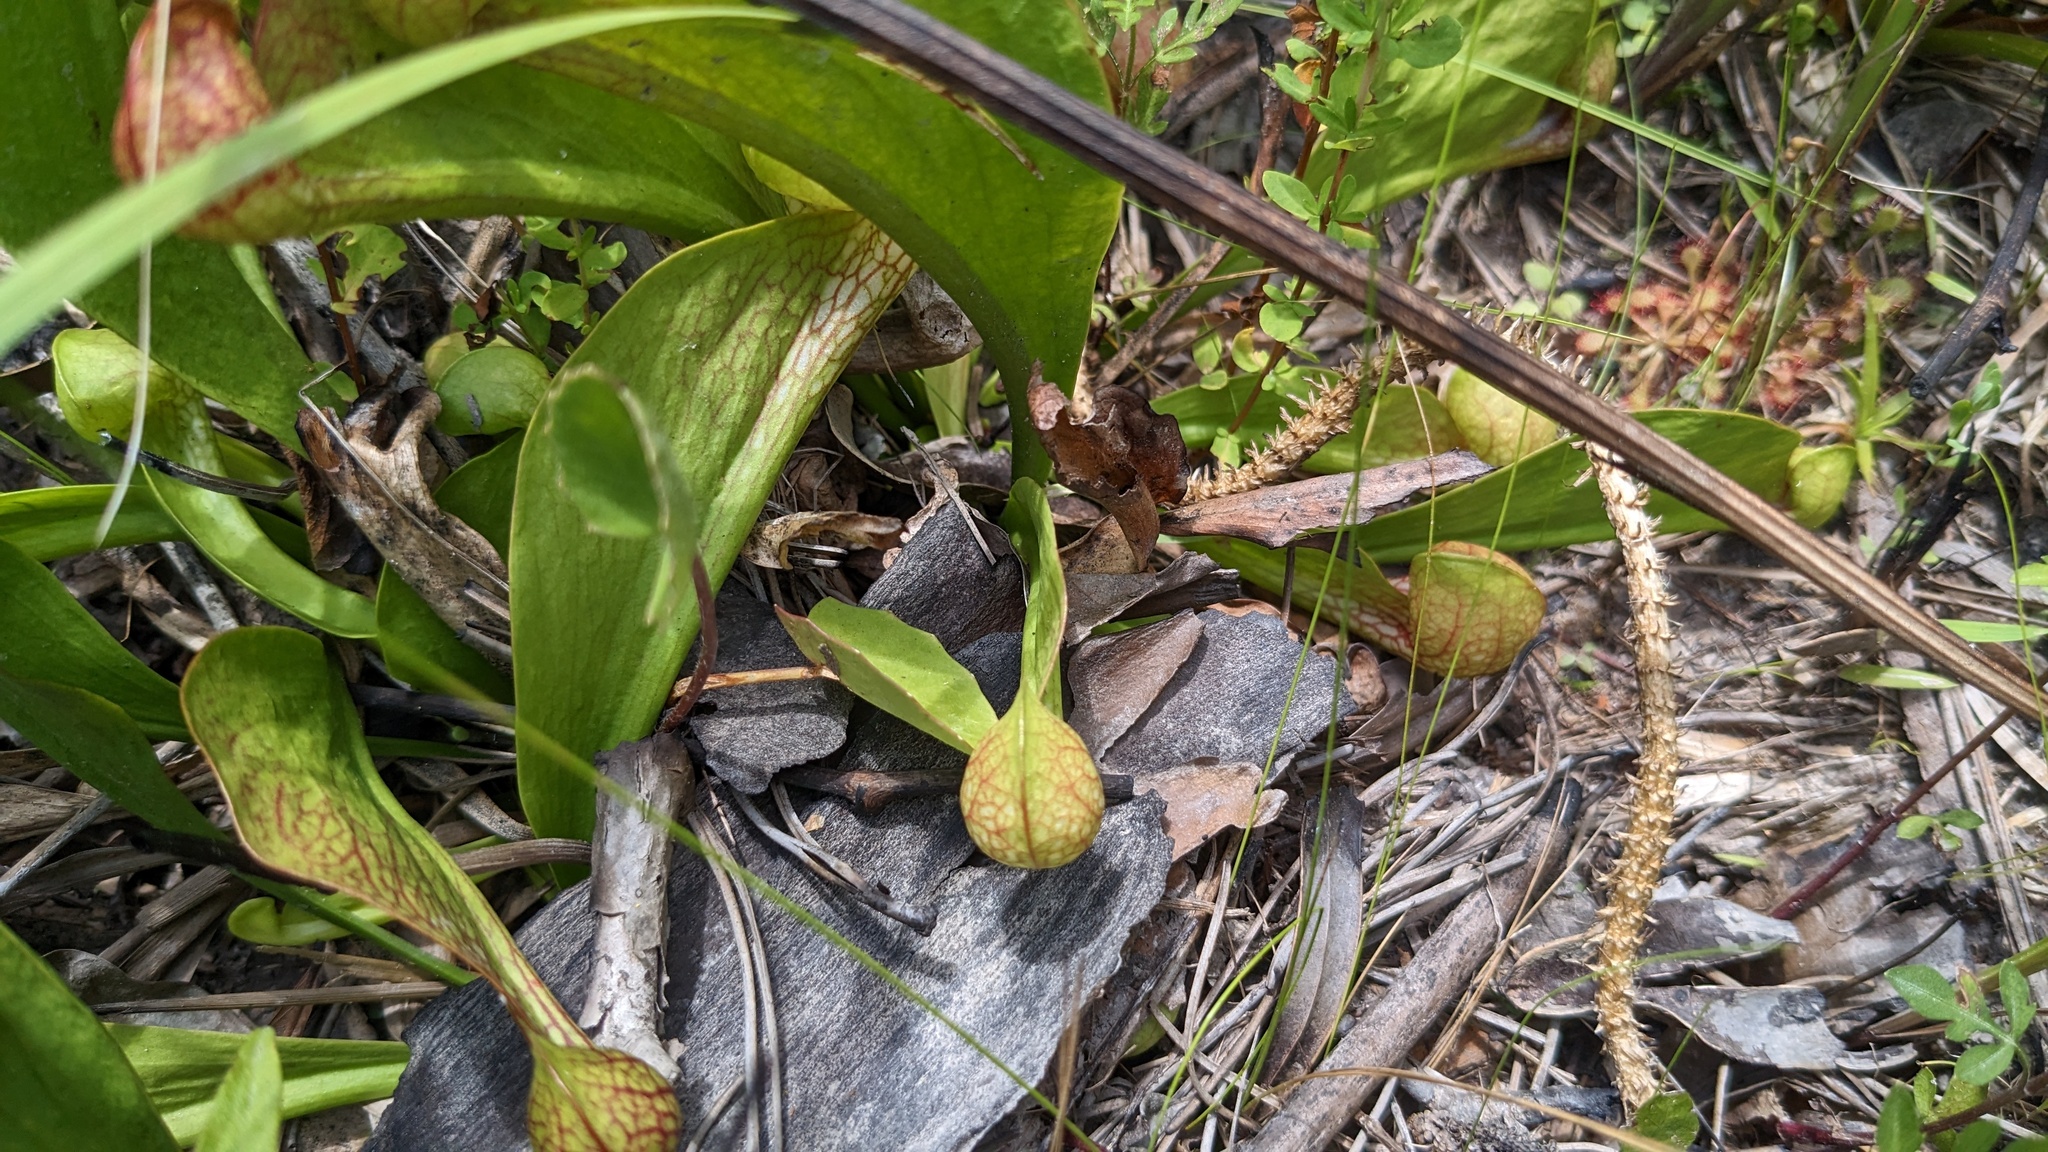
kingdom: Plantae
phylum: Tracheophyta
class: Magnoliopsida
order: Ericales
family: Sarraceniaceae
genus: Sarracenia
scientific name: Sarracenia psittacina
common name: Parrot pitcherplant
